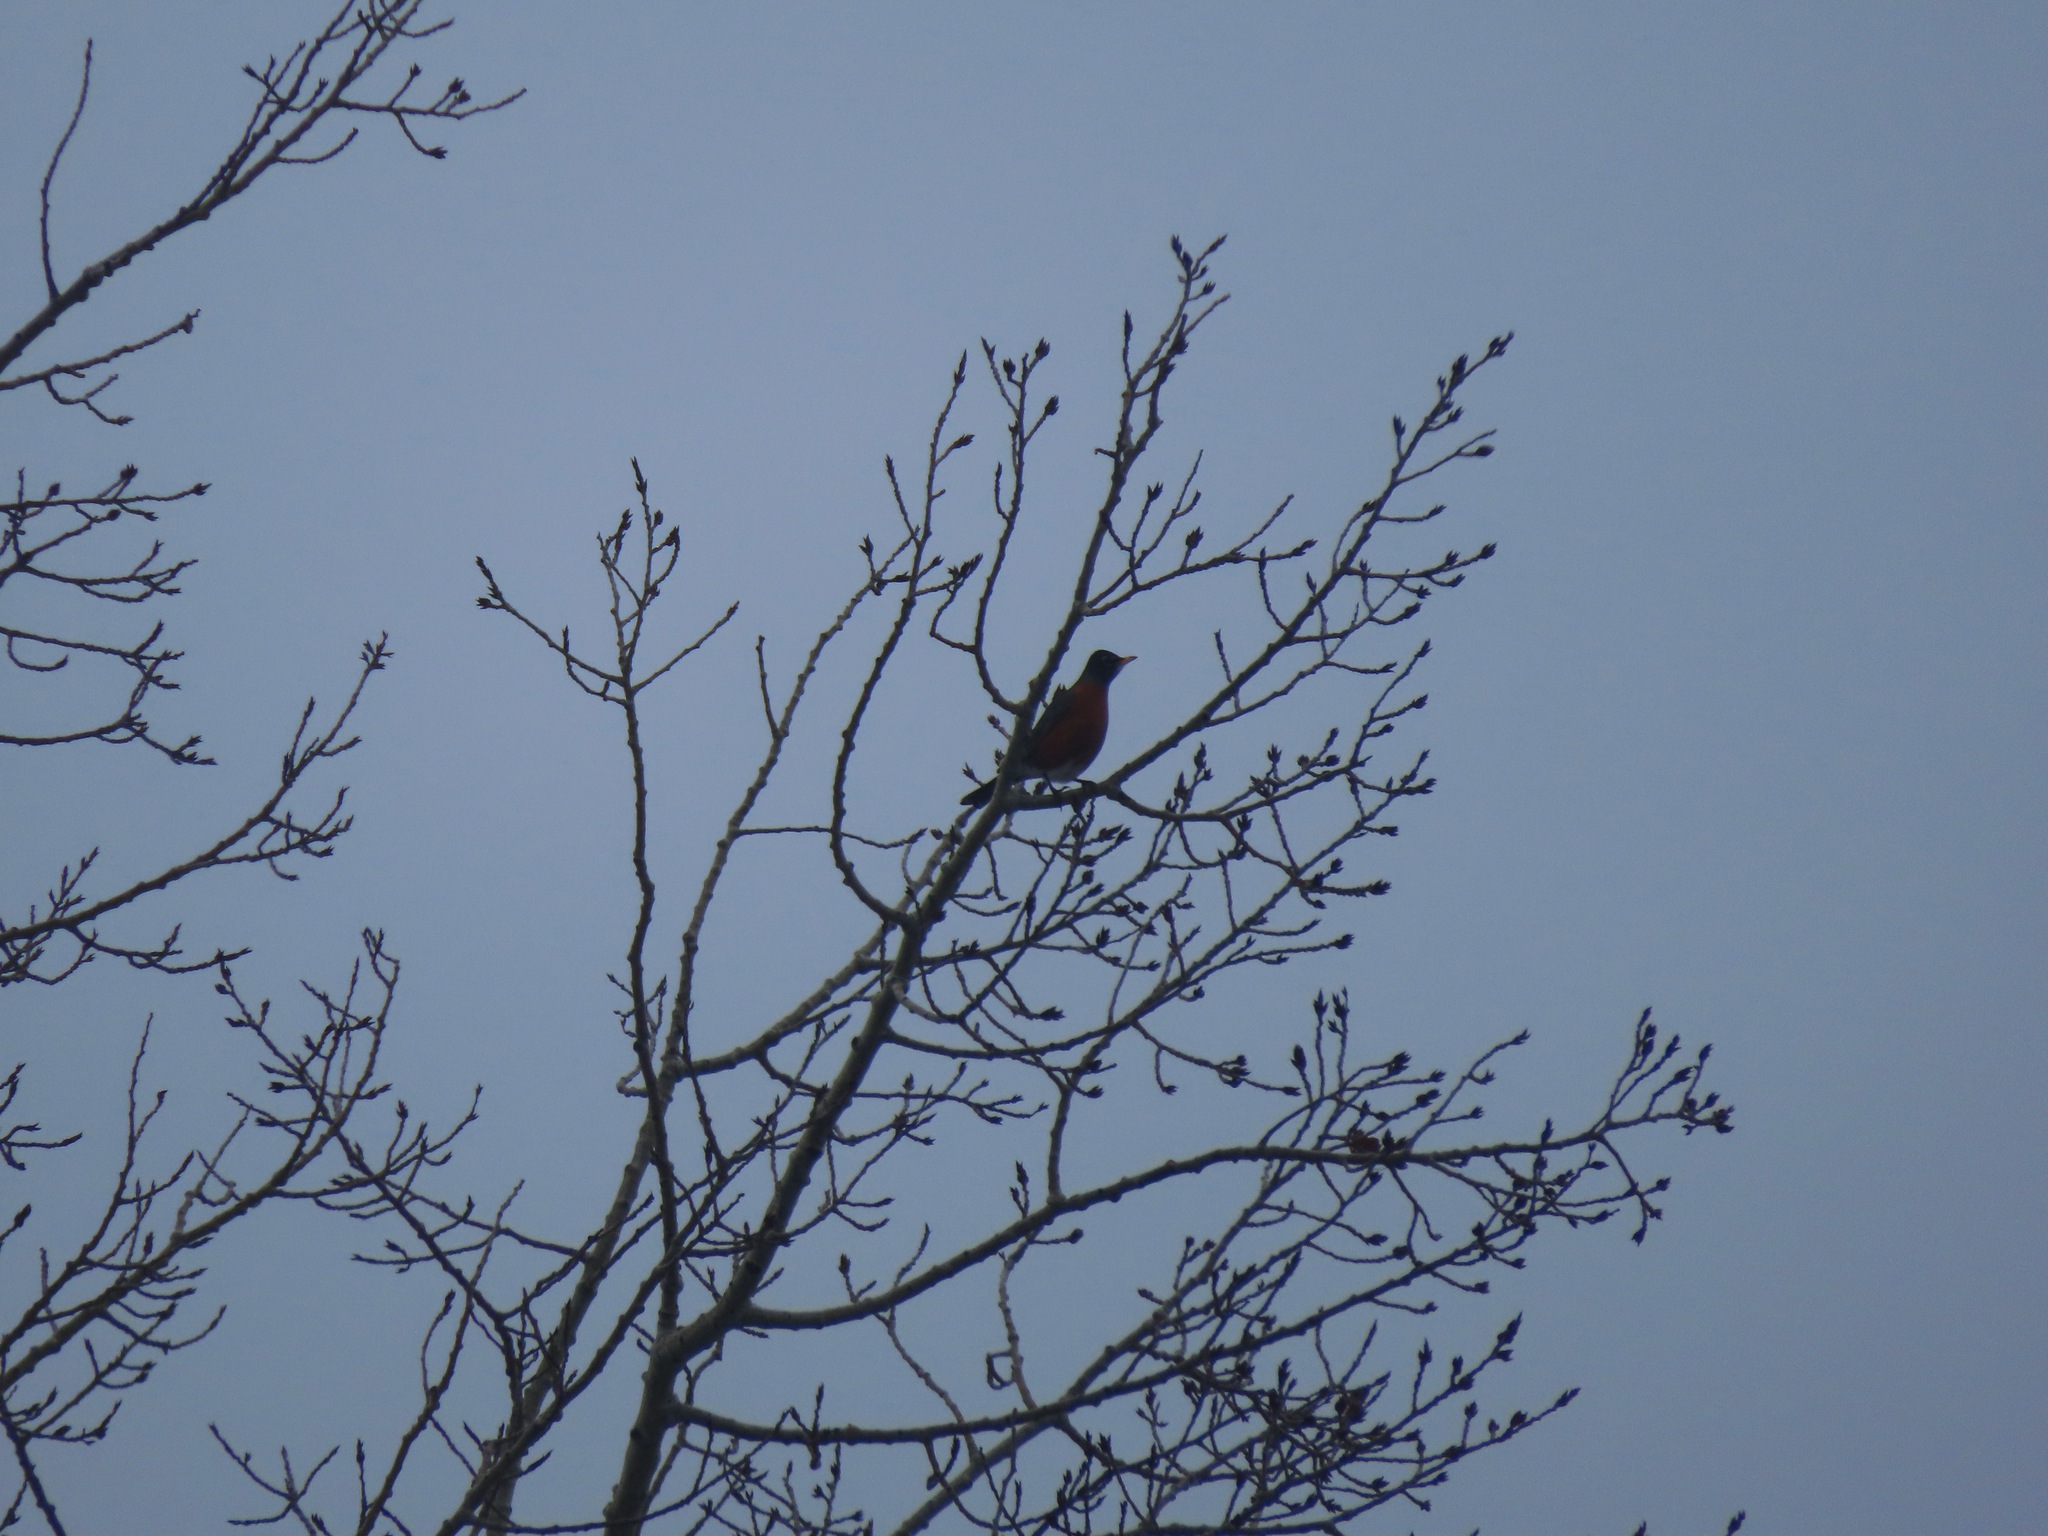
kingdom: Animalia
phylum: Chordata
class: Aves
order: Passeriformes
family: Turdidae
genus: Turdus
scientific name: Turdus migratorius
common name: American robin
